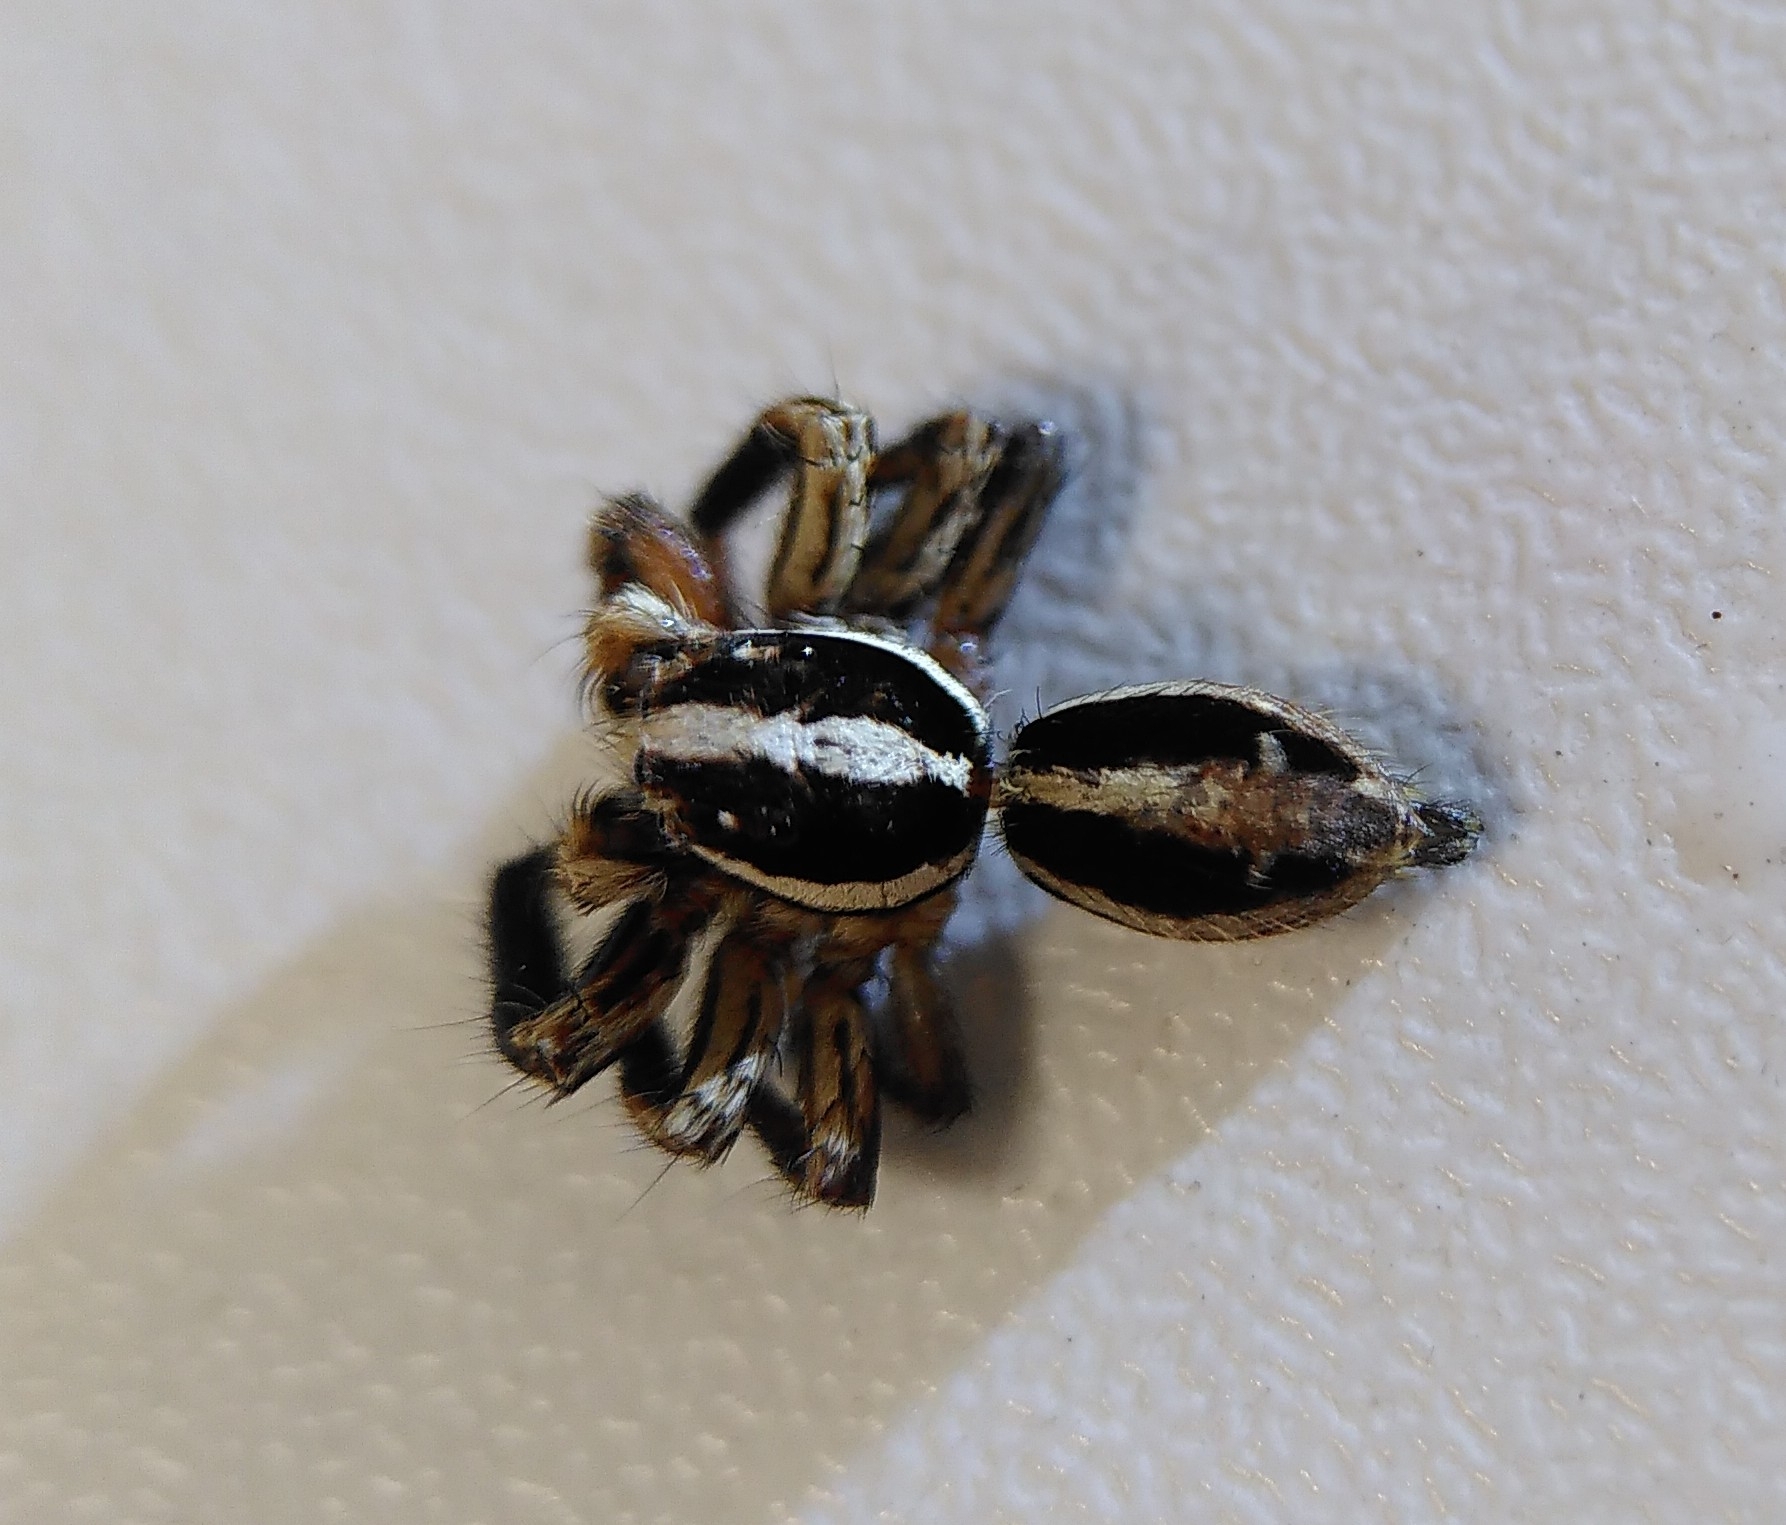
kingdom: Animalia
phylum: Arthropoda
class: Arachnida
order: Araneae
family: Salticidae
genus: Plexippus
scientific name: Plexippus paykulli
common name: Pantropical jumper
